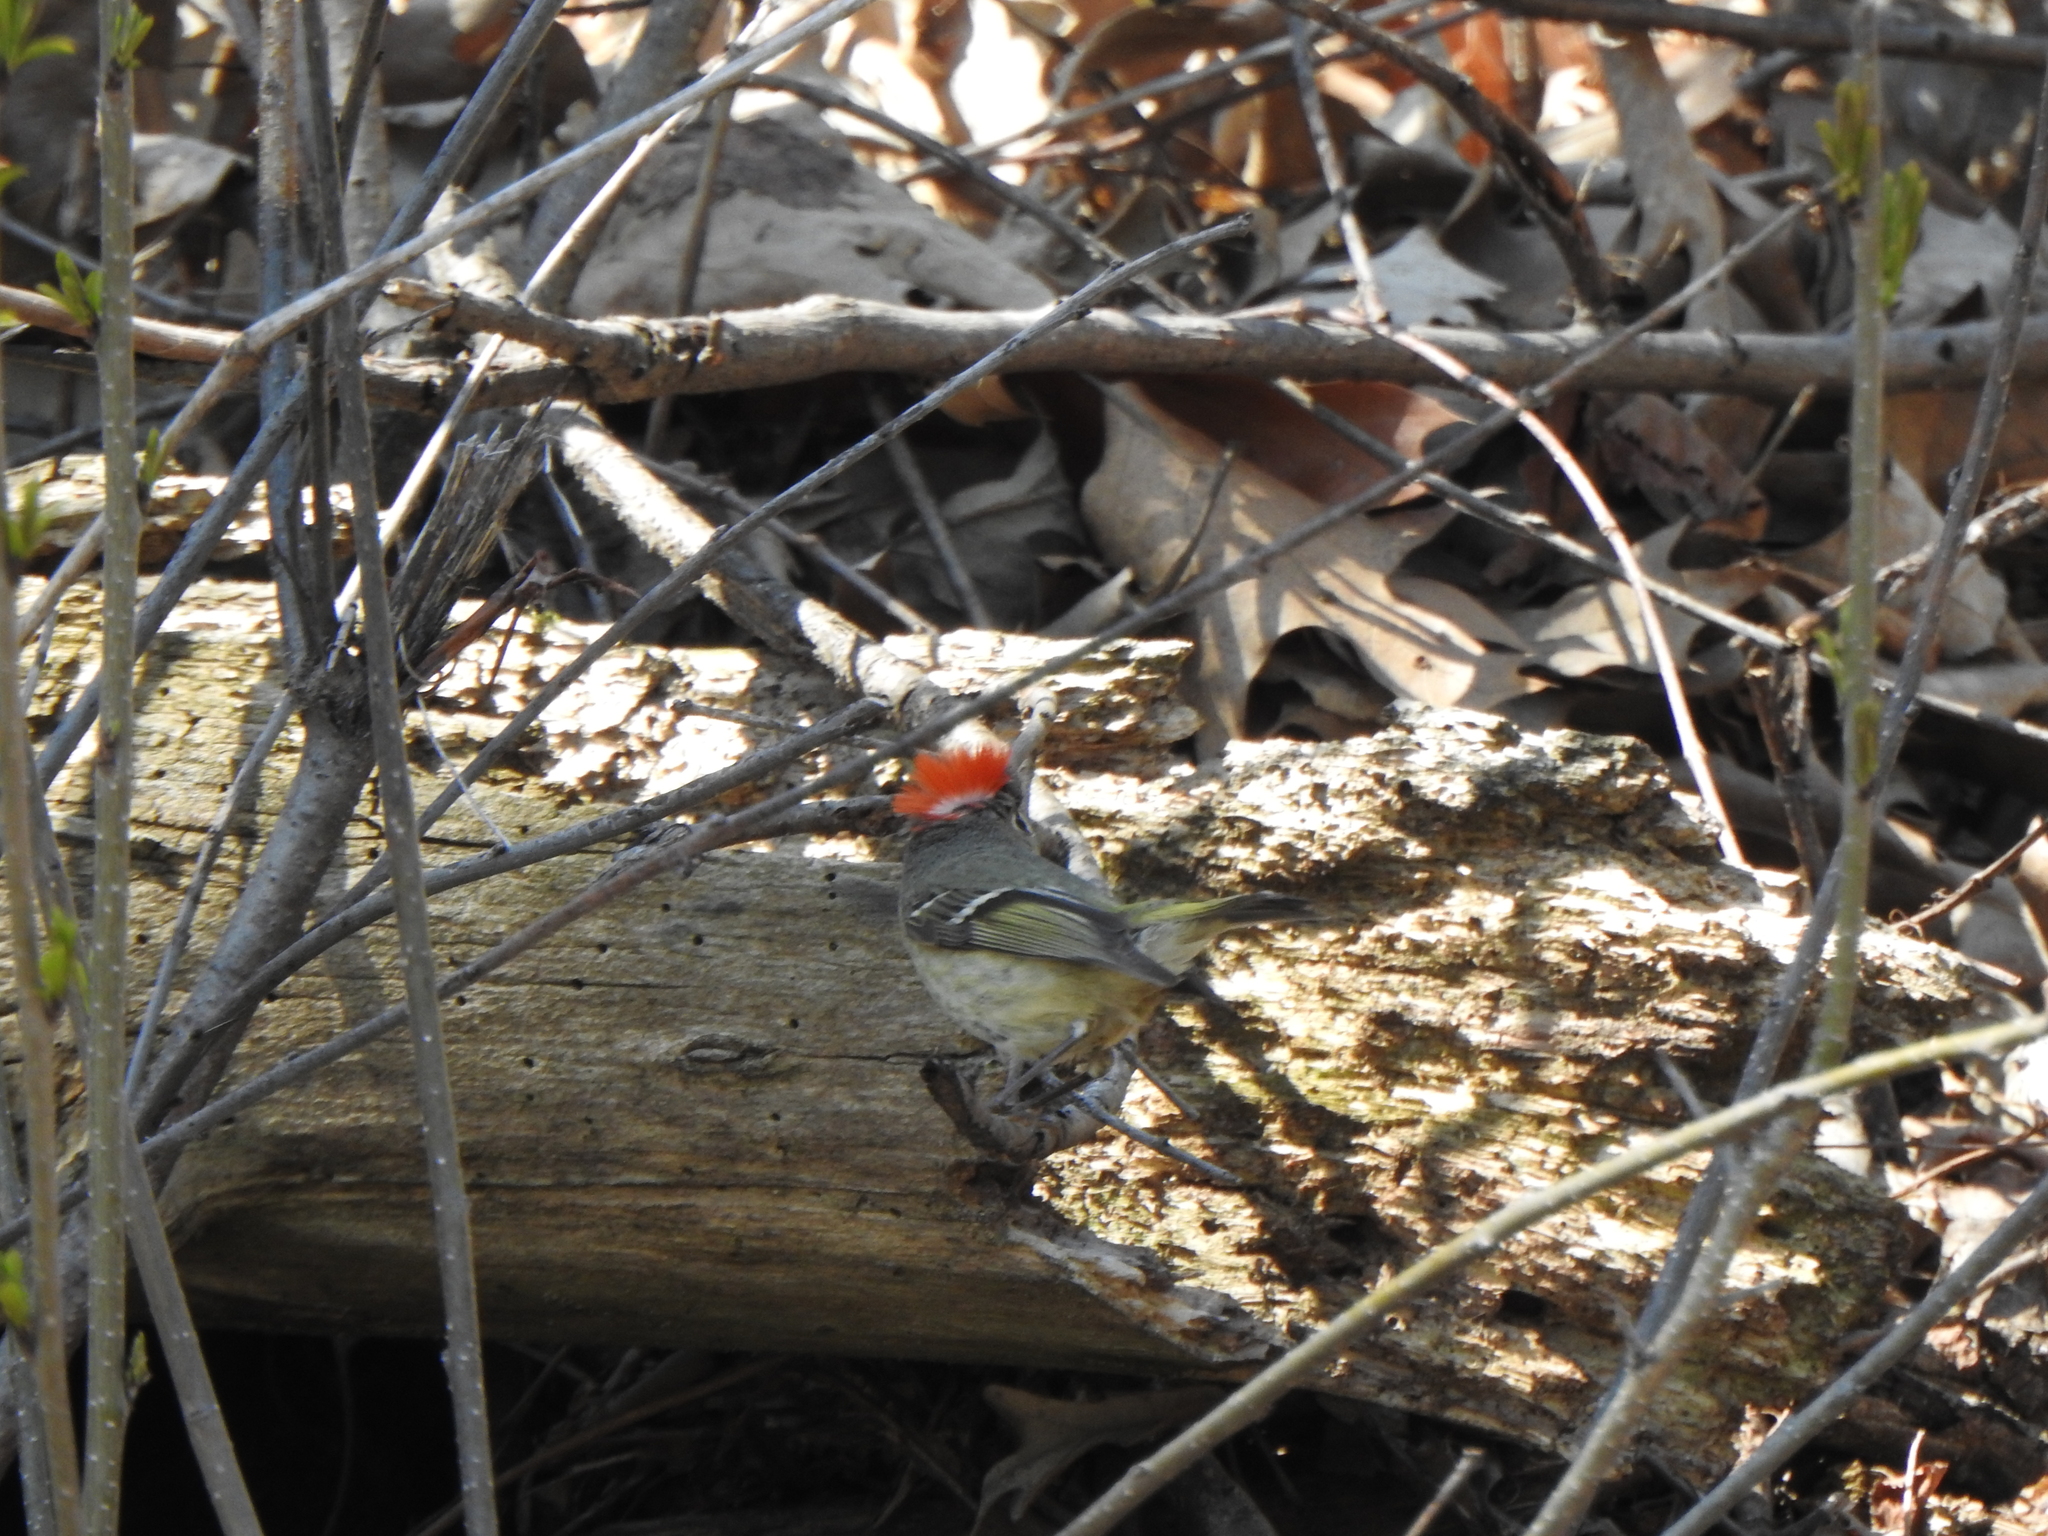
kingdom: Animalia
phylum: Chordata
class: Aves
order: Passeriformes
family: Regulidae
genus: Regulus
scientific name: Regulus calendula
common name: Ruby-crowned kinglet
